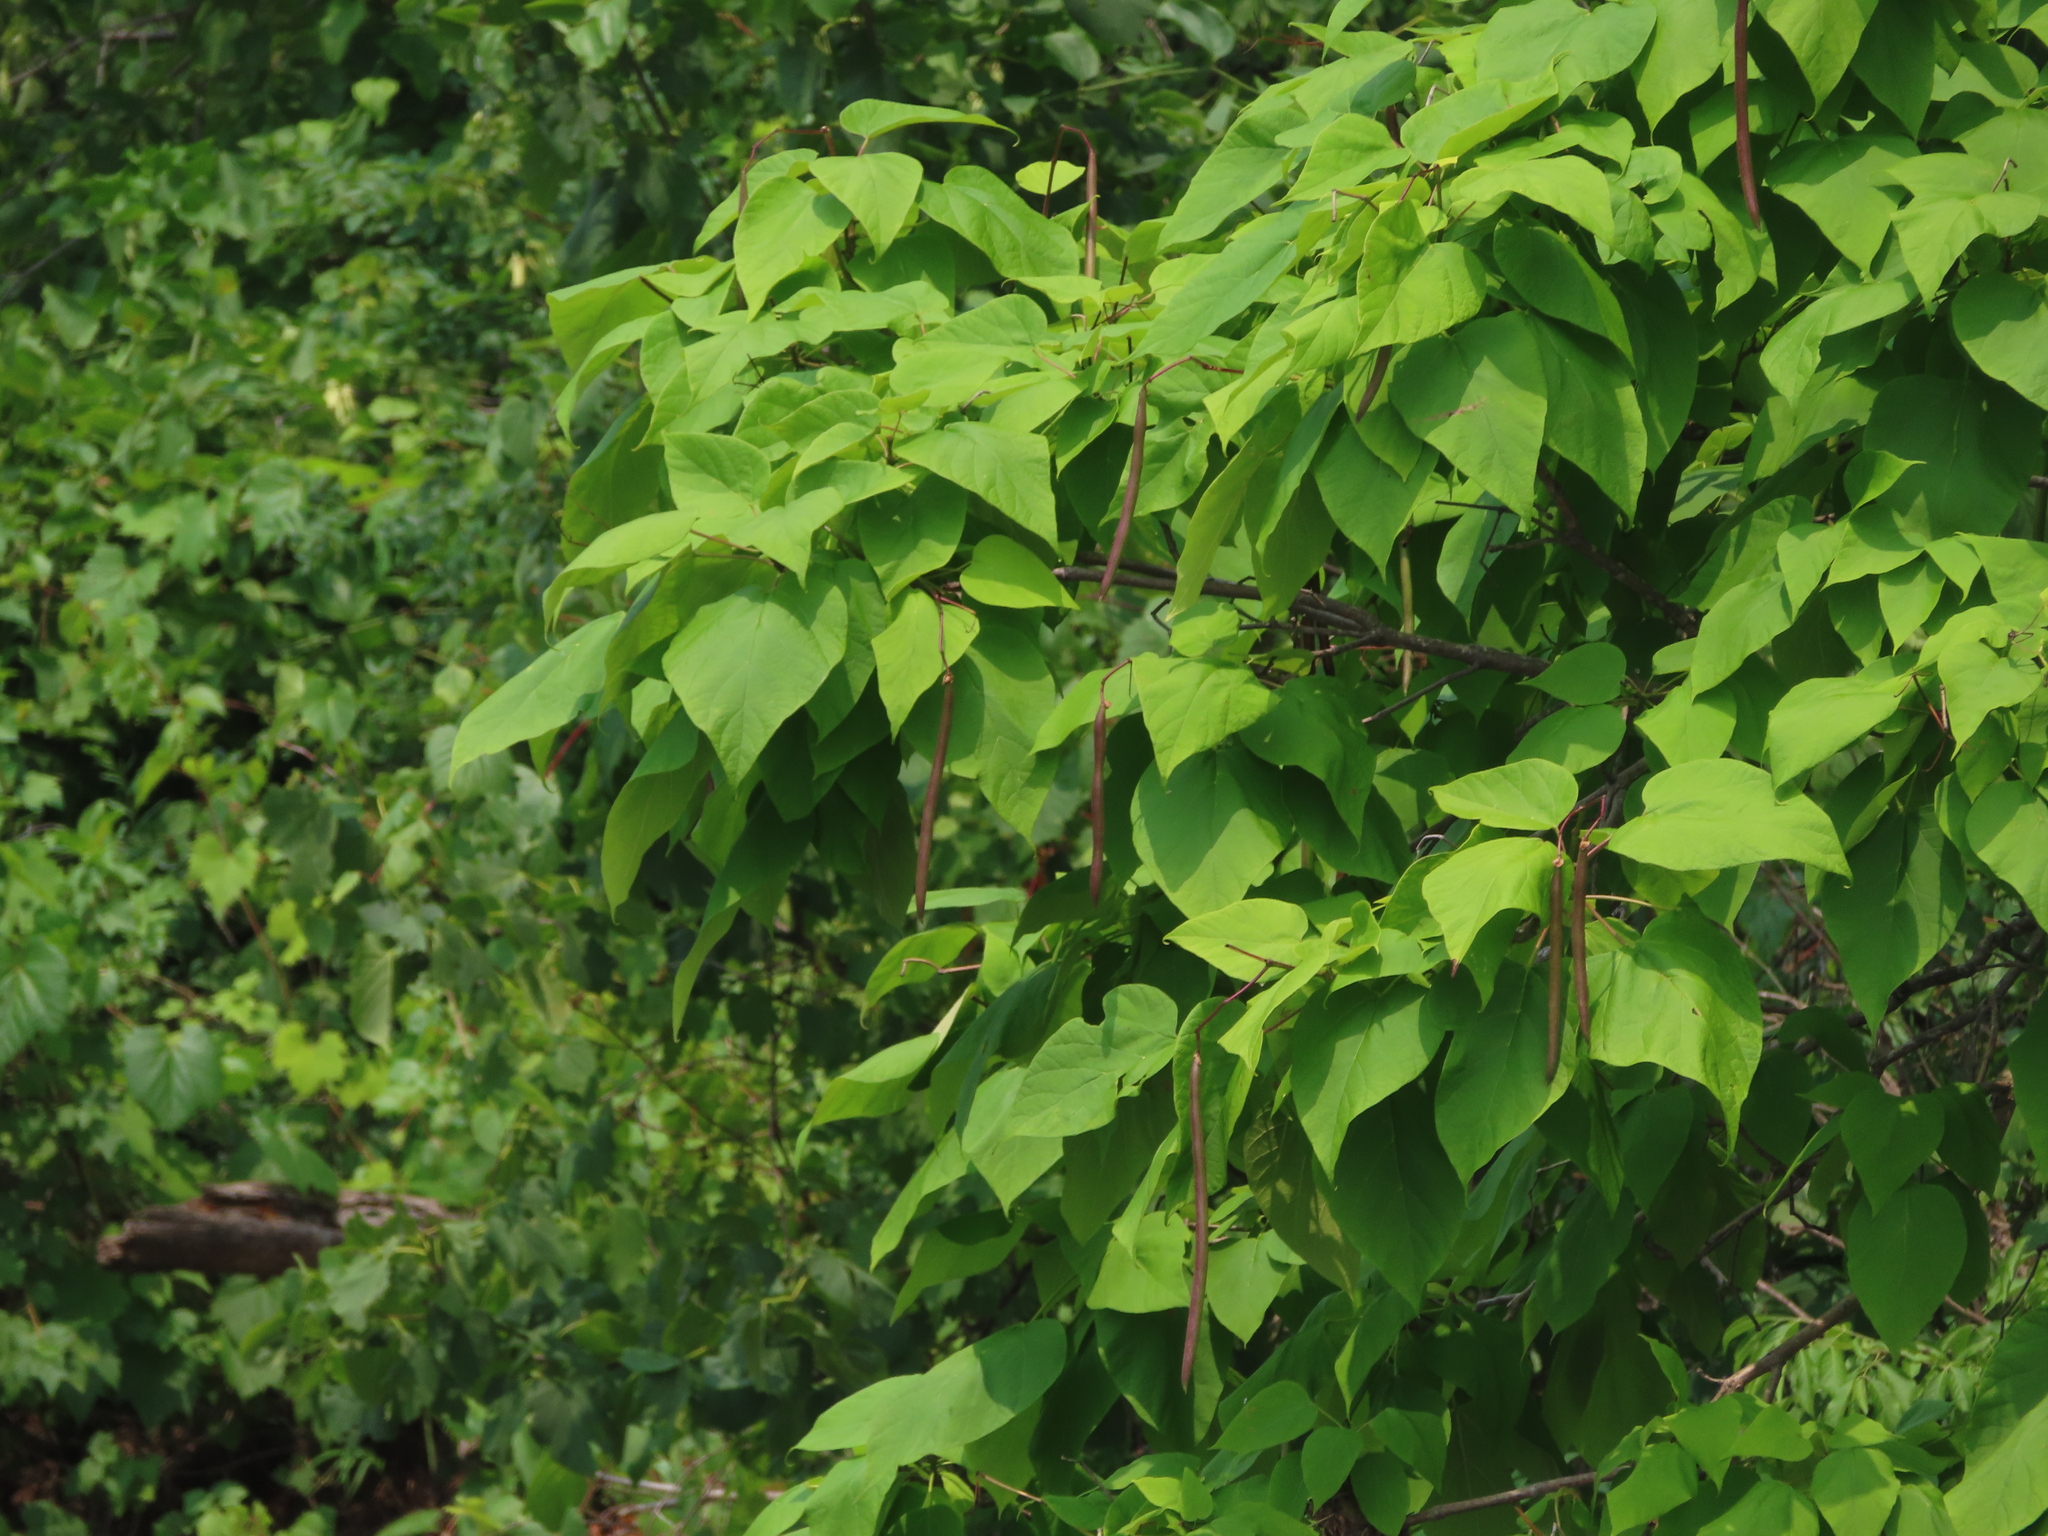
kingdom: Plantae
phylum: Tracheophyta
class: Magnoliopsida
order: Lamiales
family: Bignoniaceae
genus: Catalpa
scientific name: Catalpa speciosa
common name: Northern catalpa
